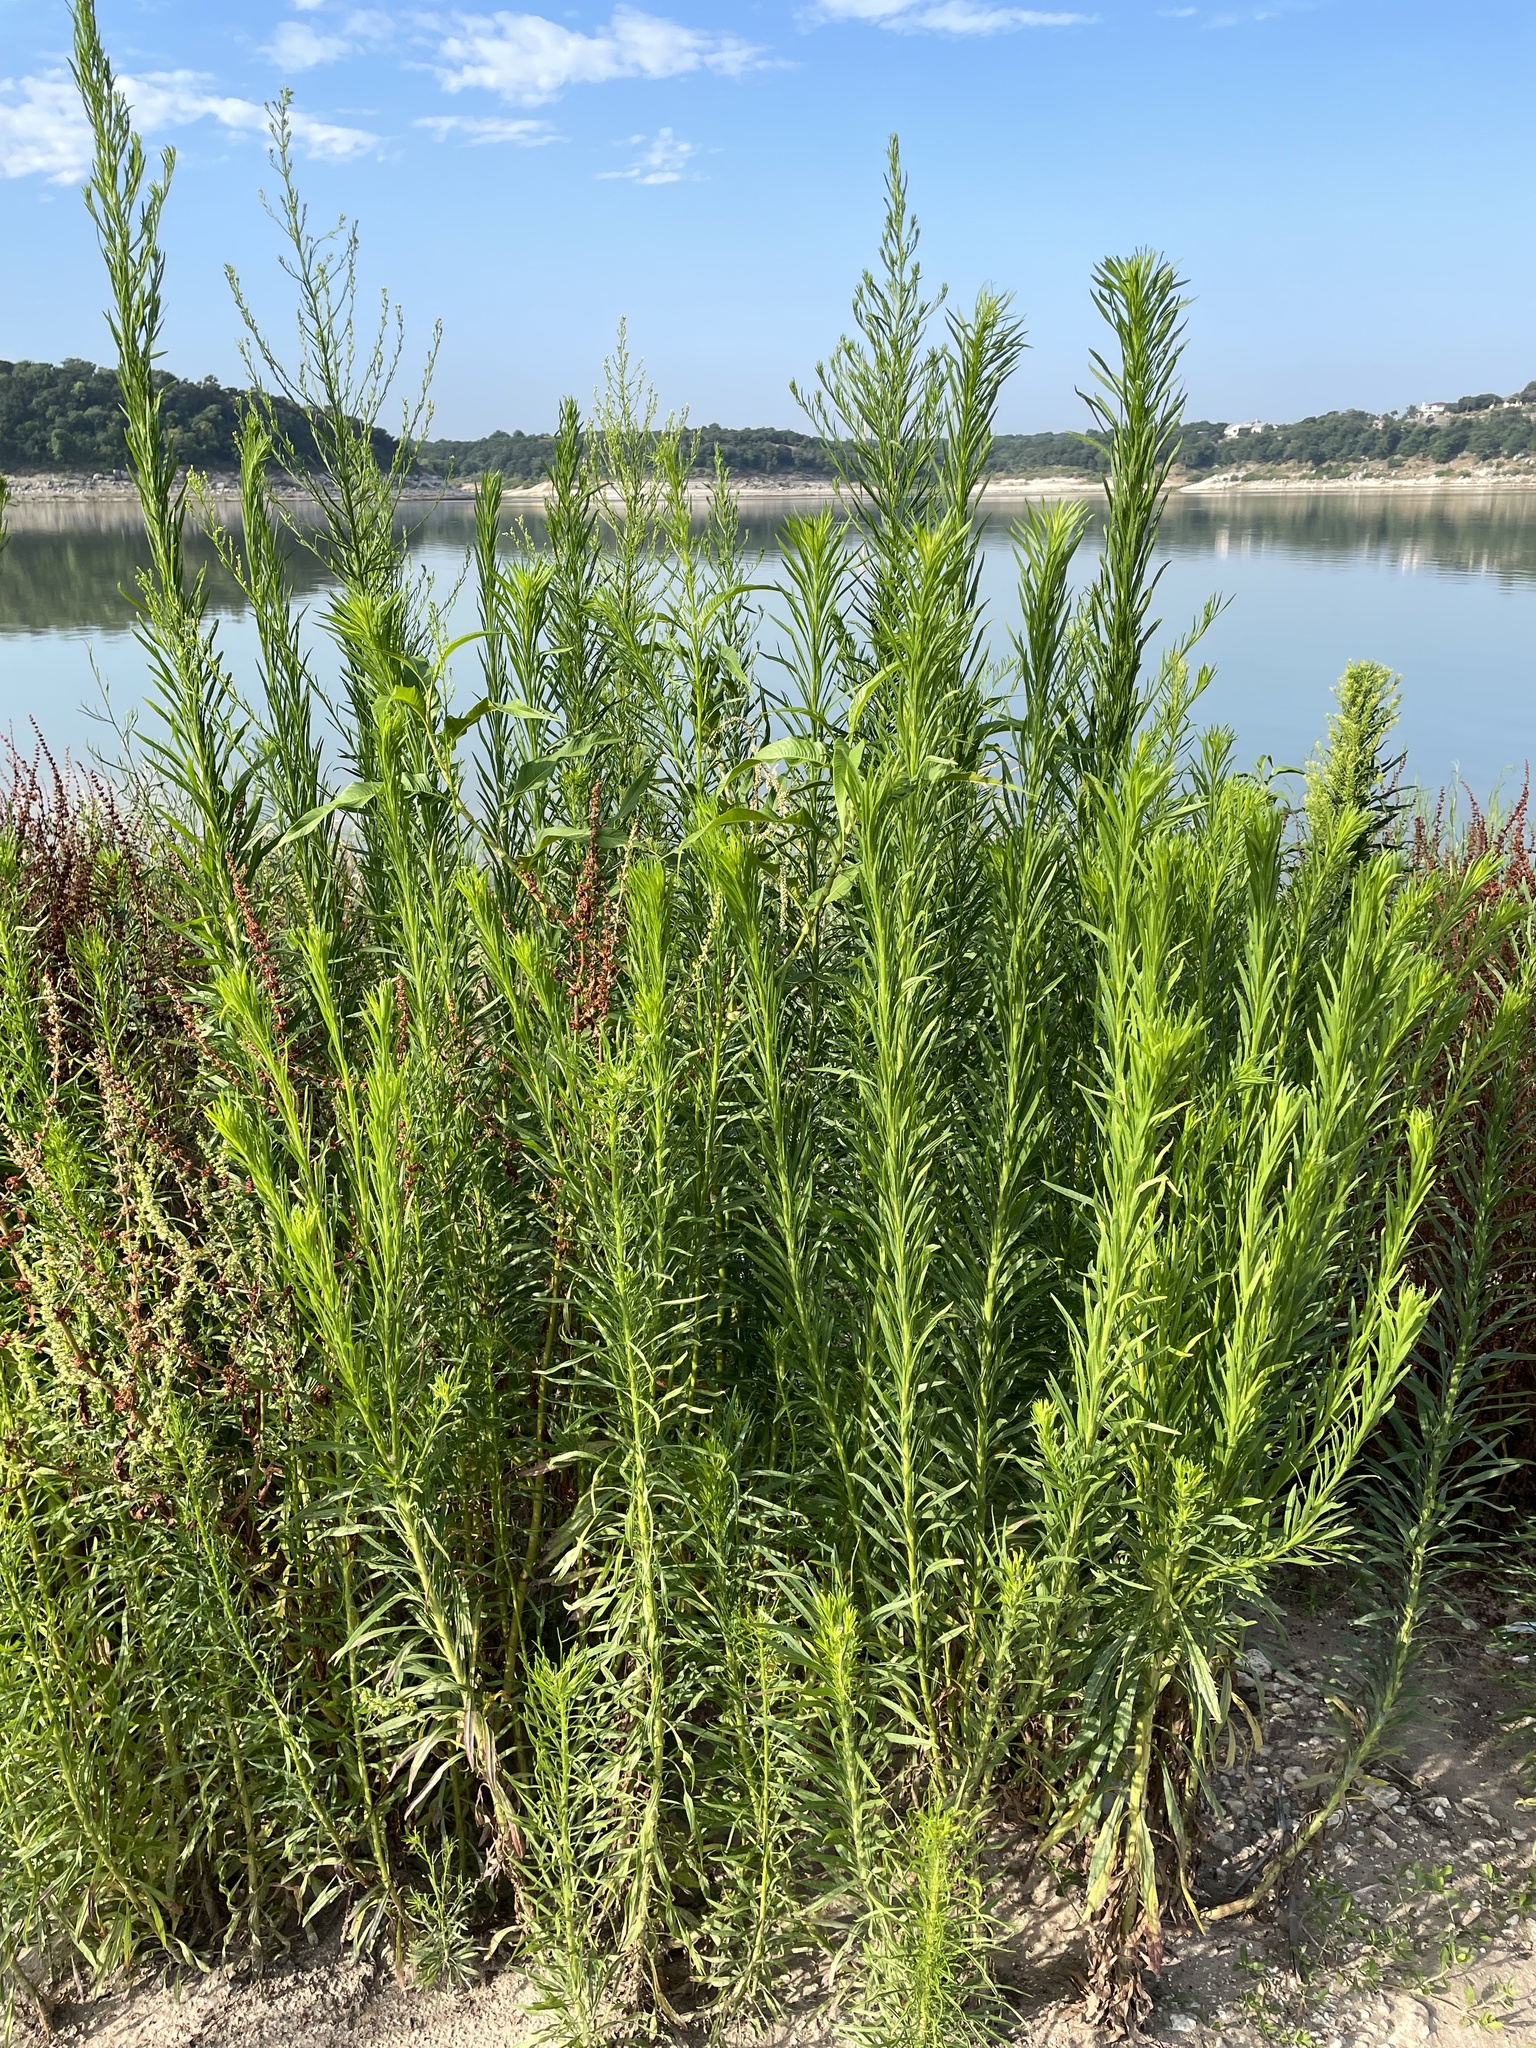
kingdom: Plantae
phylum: Tracheophyta
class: Magnoliopsida
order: Asterales
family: Asteraceae
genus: Erigeron
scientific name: Erigeron canadensis
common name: Canadian fleabane
